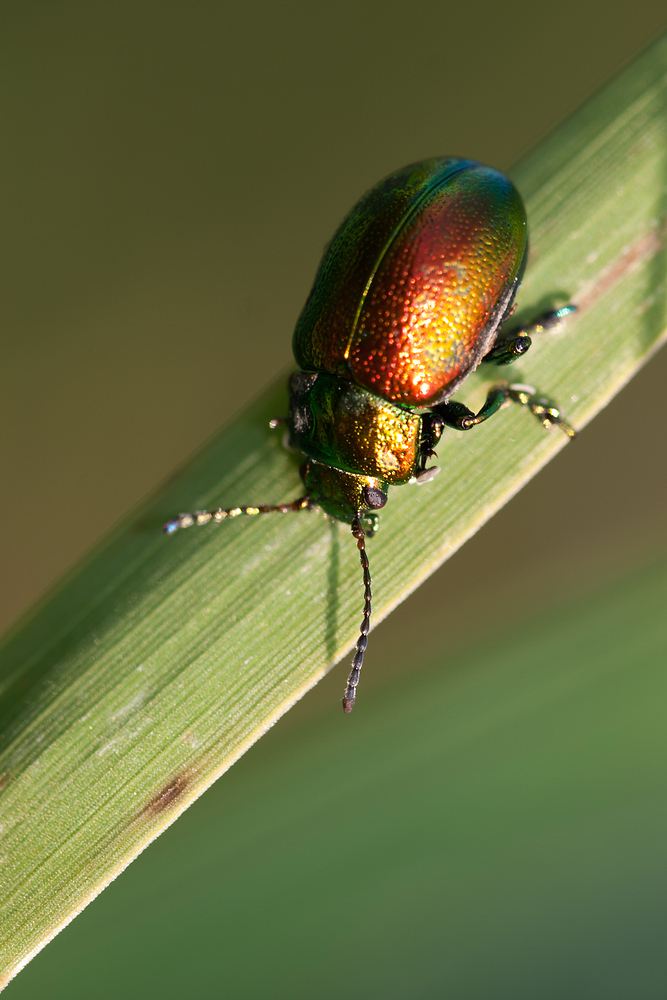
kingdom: Animalia
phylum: Arthropoda
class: Insecta
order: Coleoptera
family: Chrysomelidae
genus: Chrysolina
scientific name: Chrysolina graminis
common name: Tansey beetle
